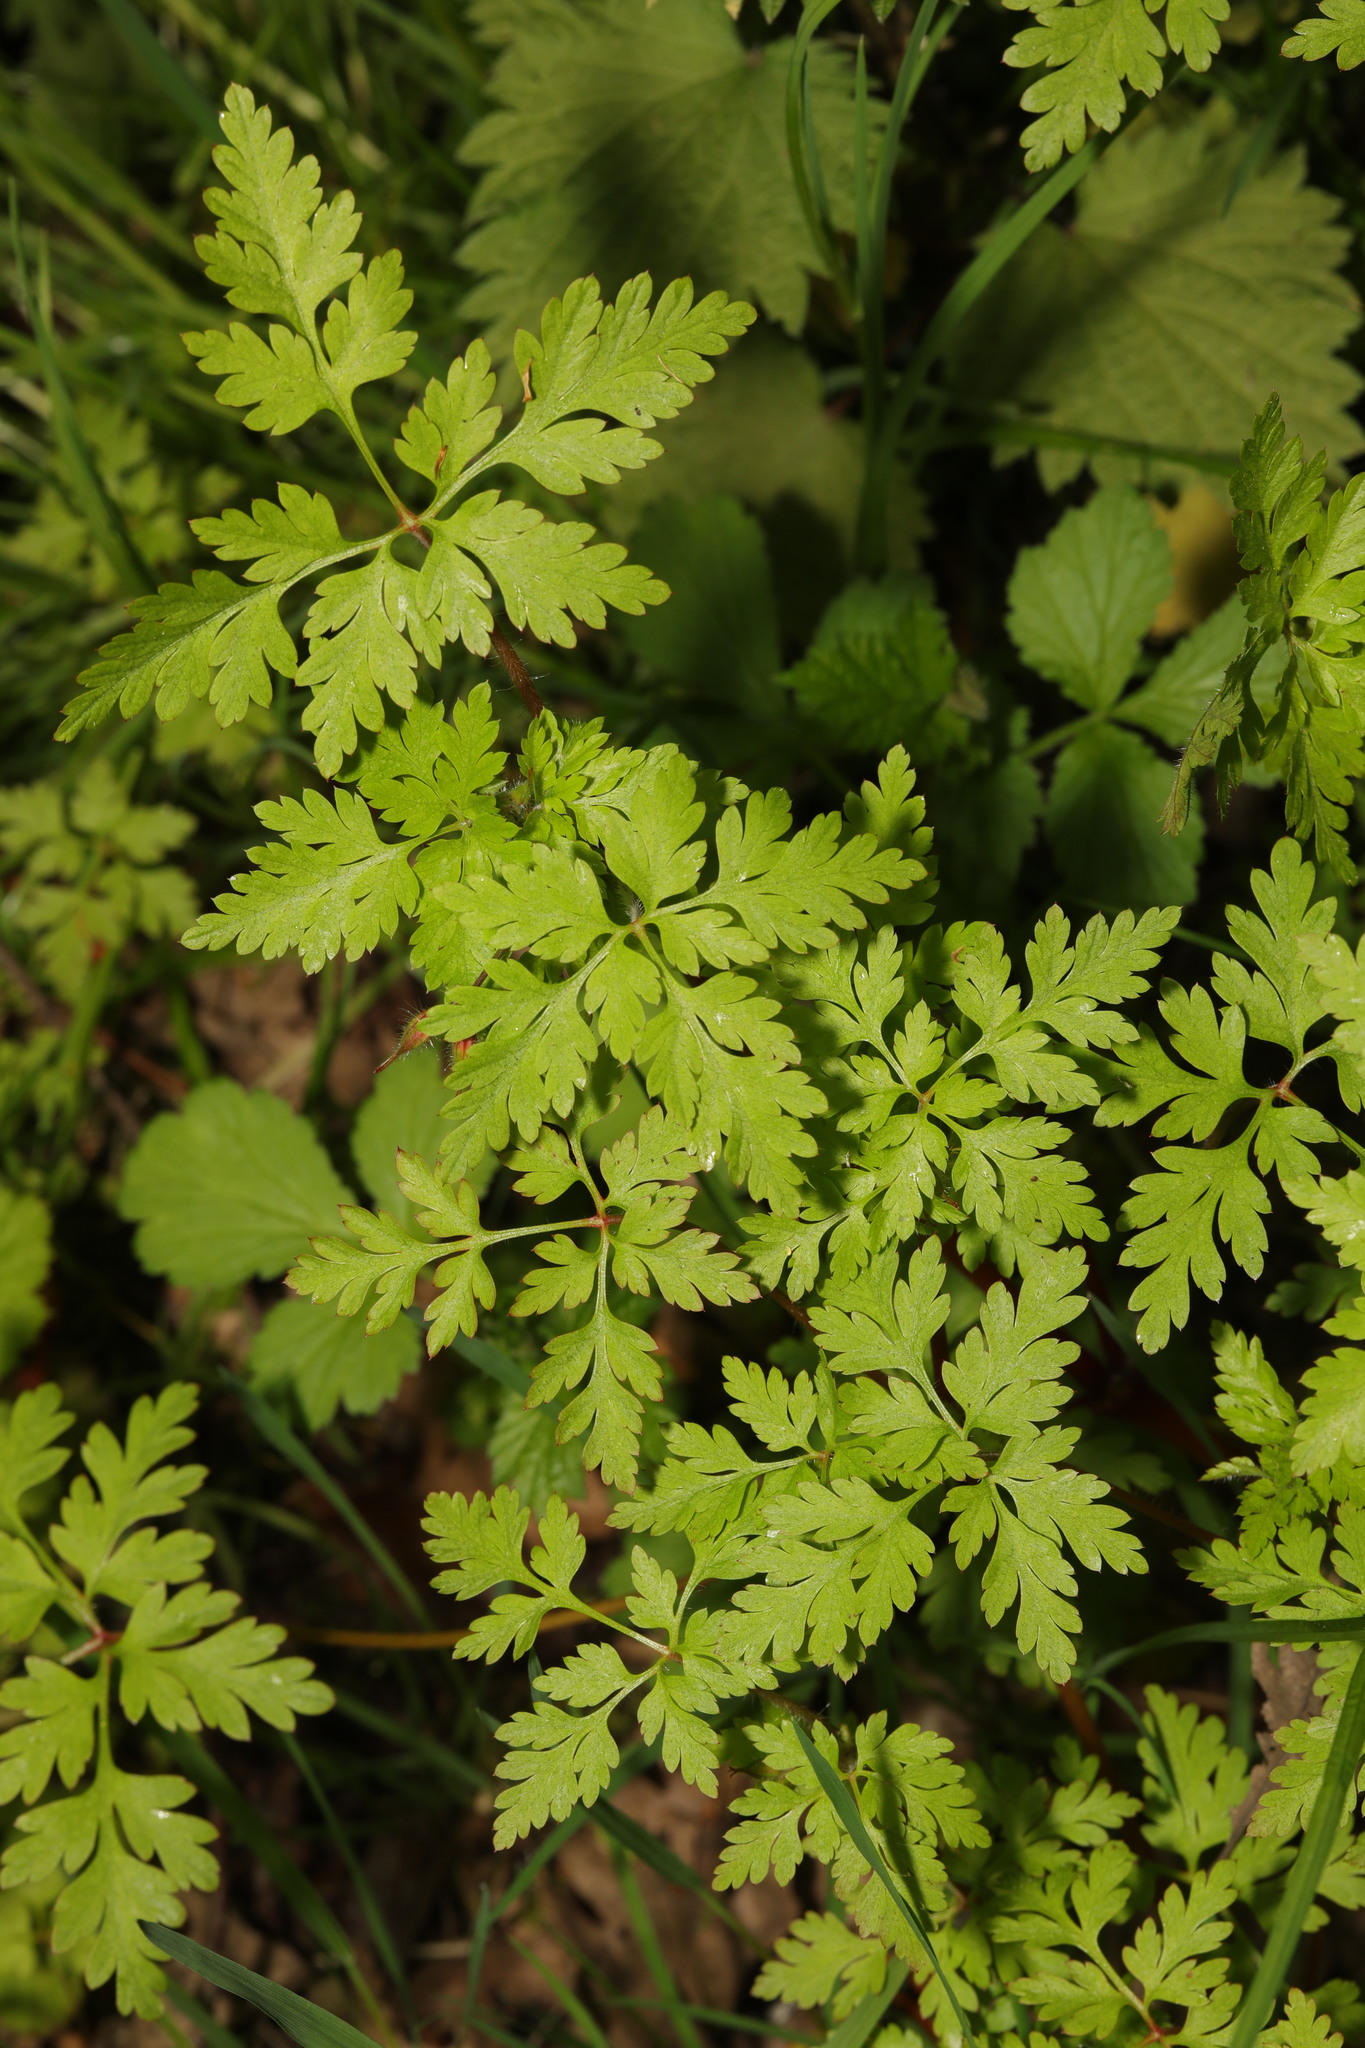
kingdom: Plantae
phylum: Tracheophyta
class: Magnoliopsida
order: Geraniales
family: Geraniaceae
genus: Geranium
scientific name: Geranium robertianum
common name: Herb-robert
